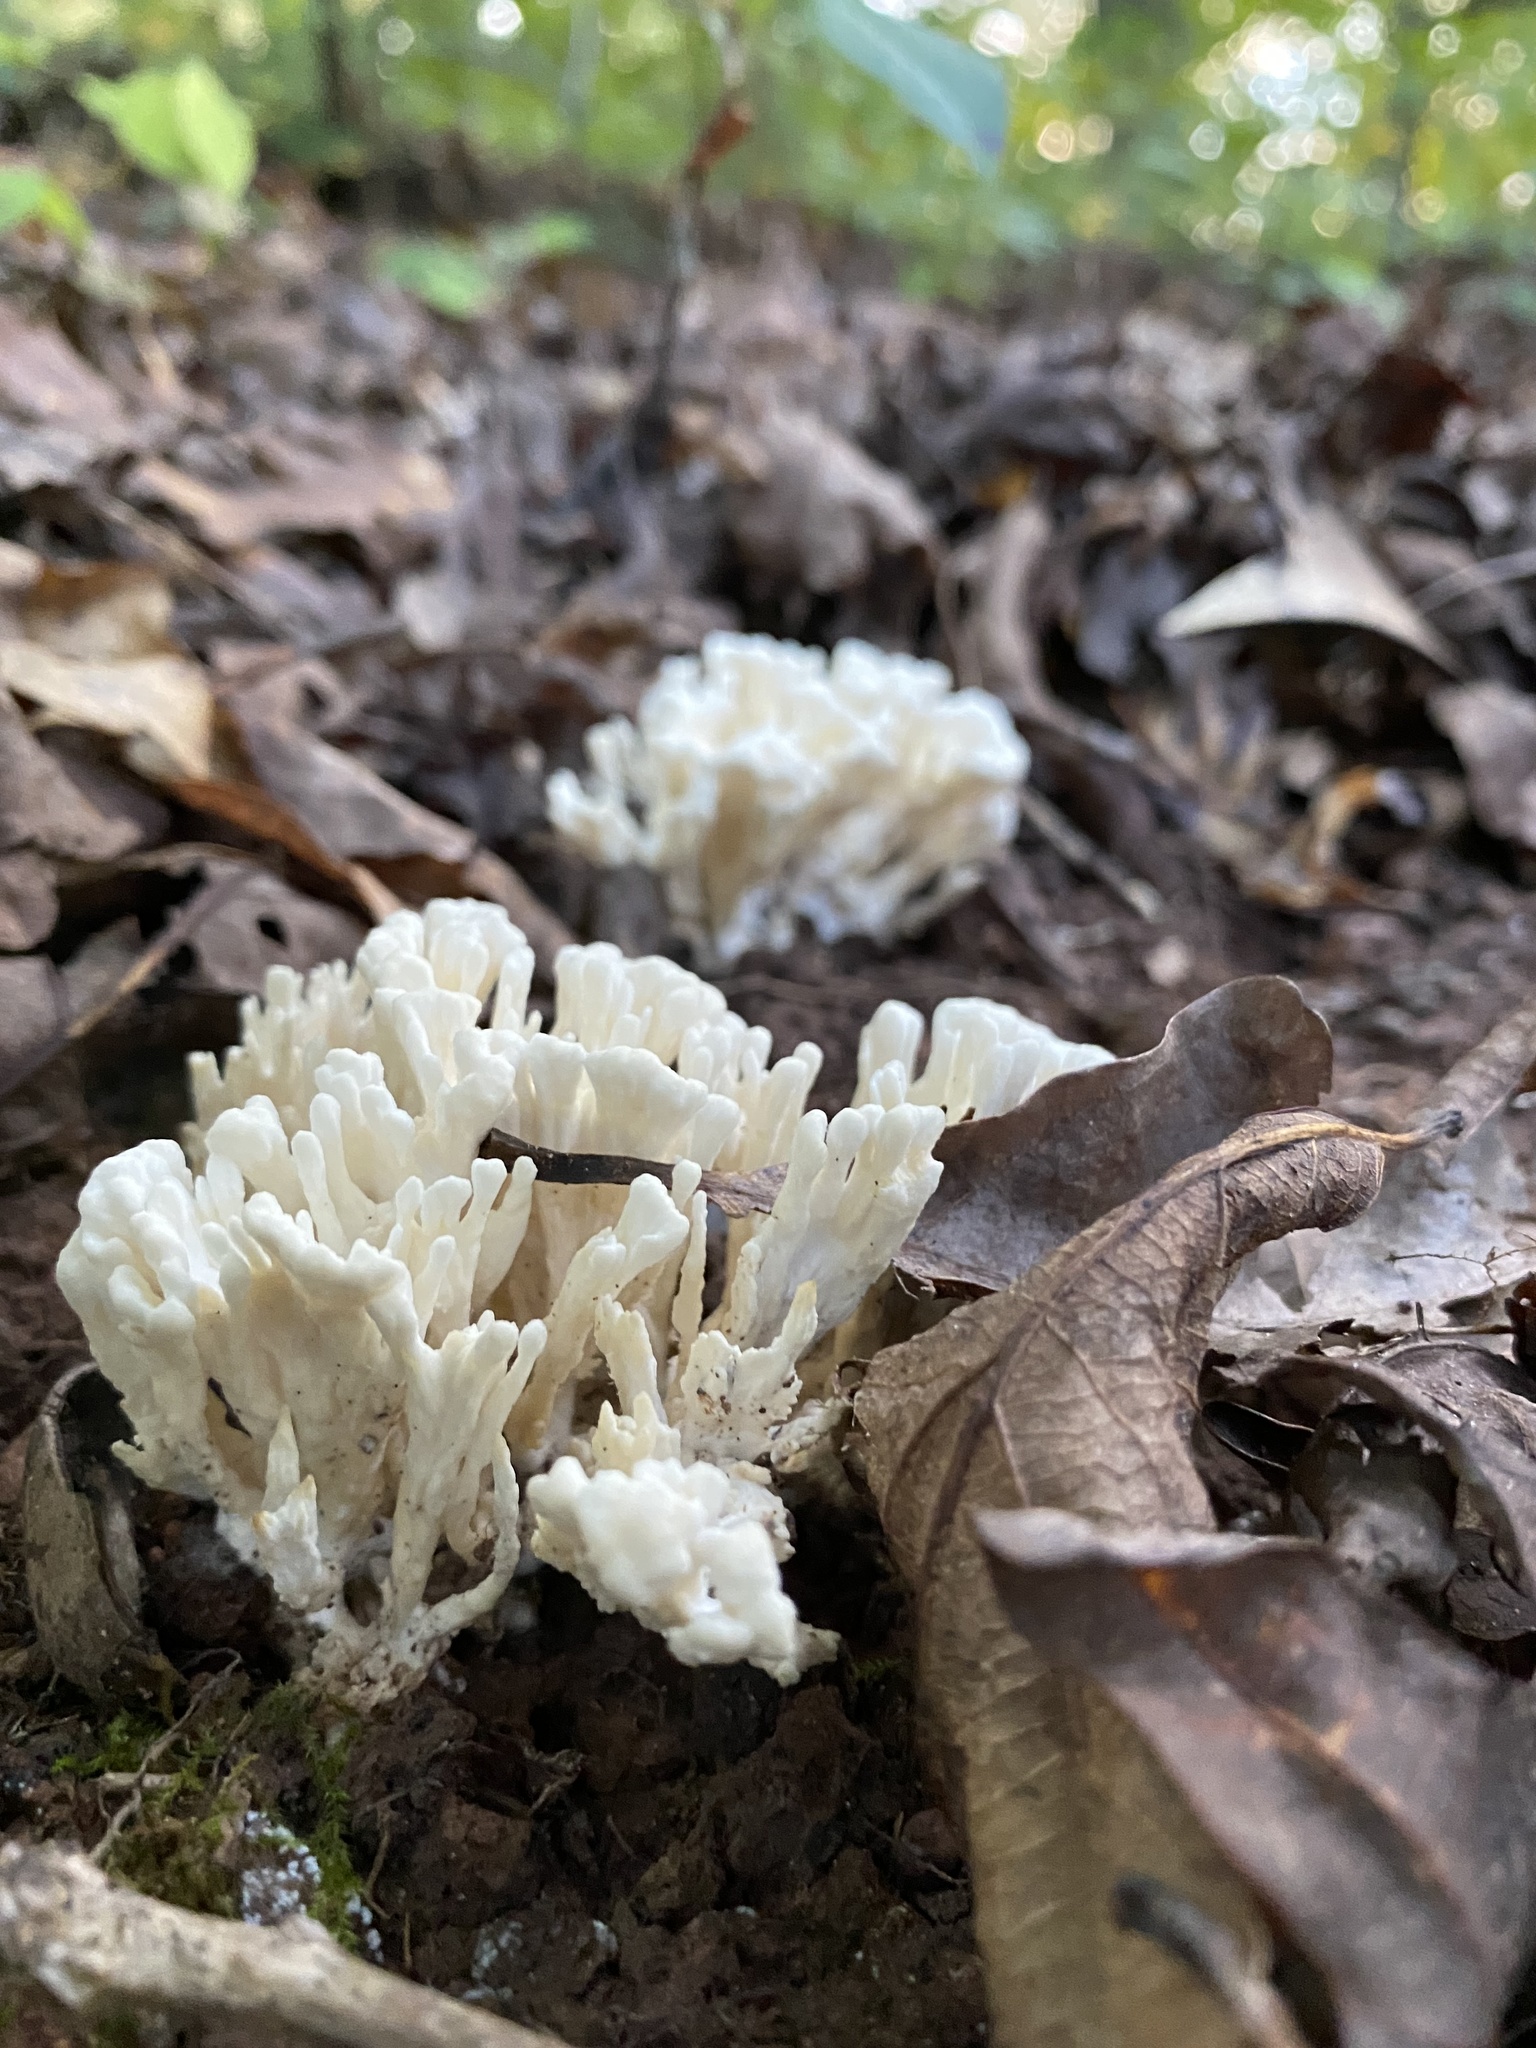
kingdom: Fungi
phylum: Basidiomycota
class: Agaricomycetes
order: Sebacinales
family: Sebacinaceae
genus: Sebacina
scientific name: Sebacina schweinitzii
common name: Jellied false coral fungus
